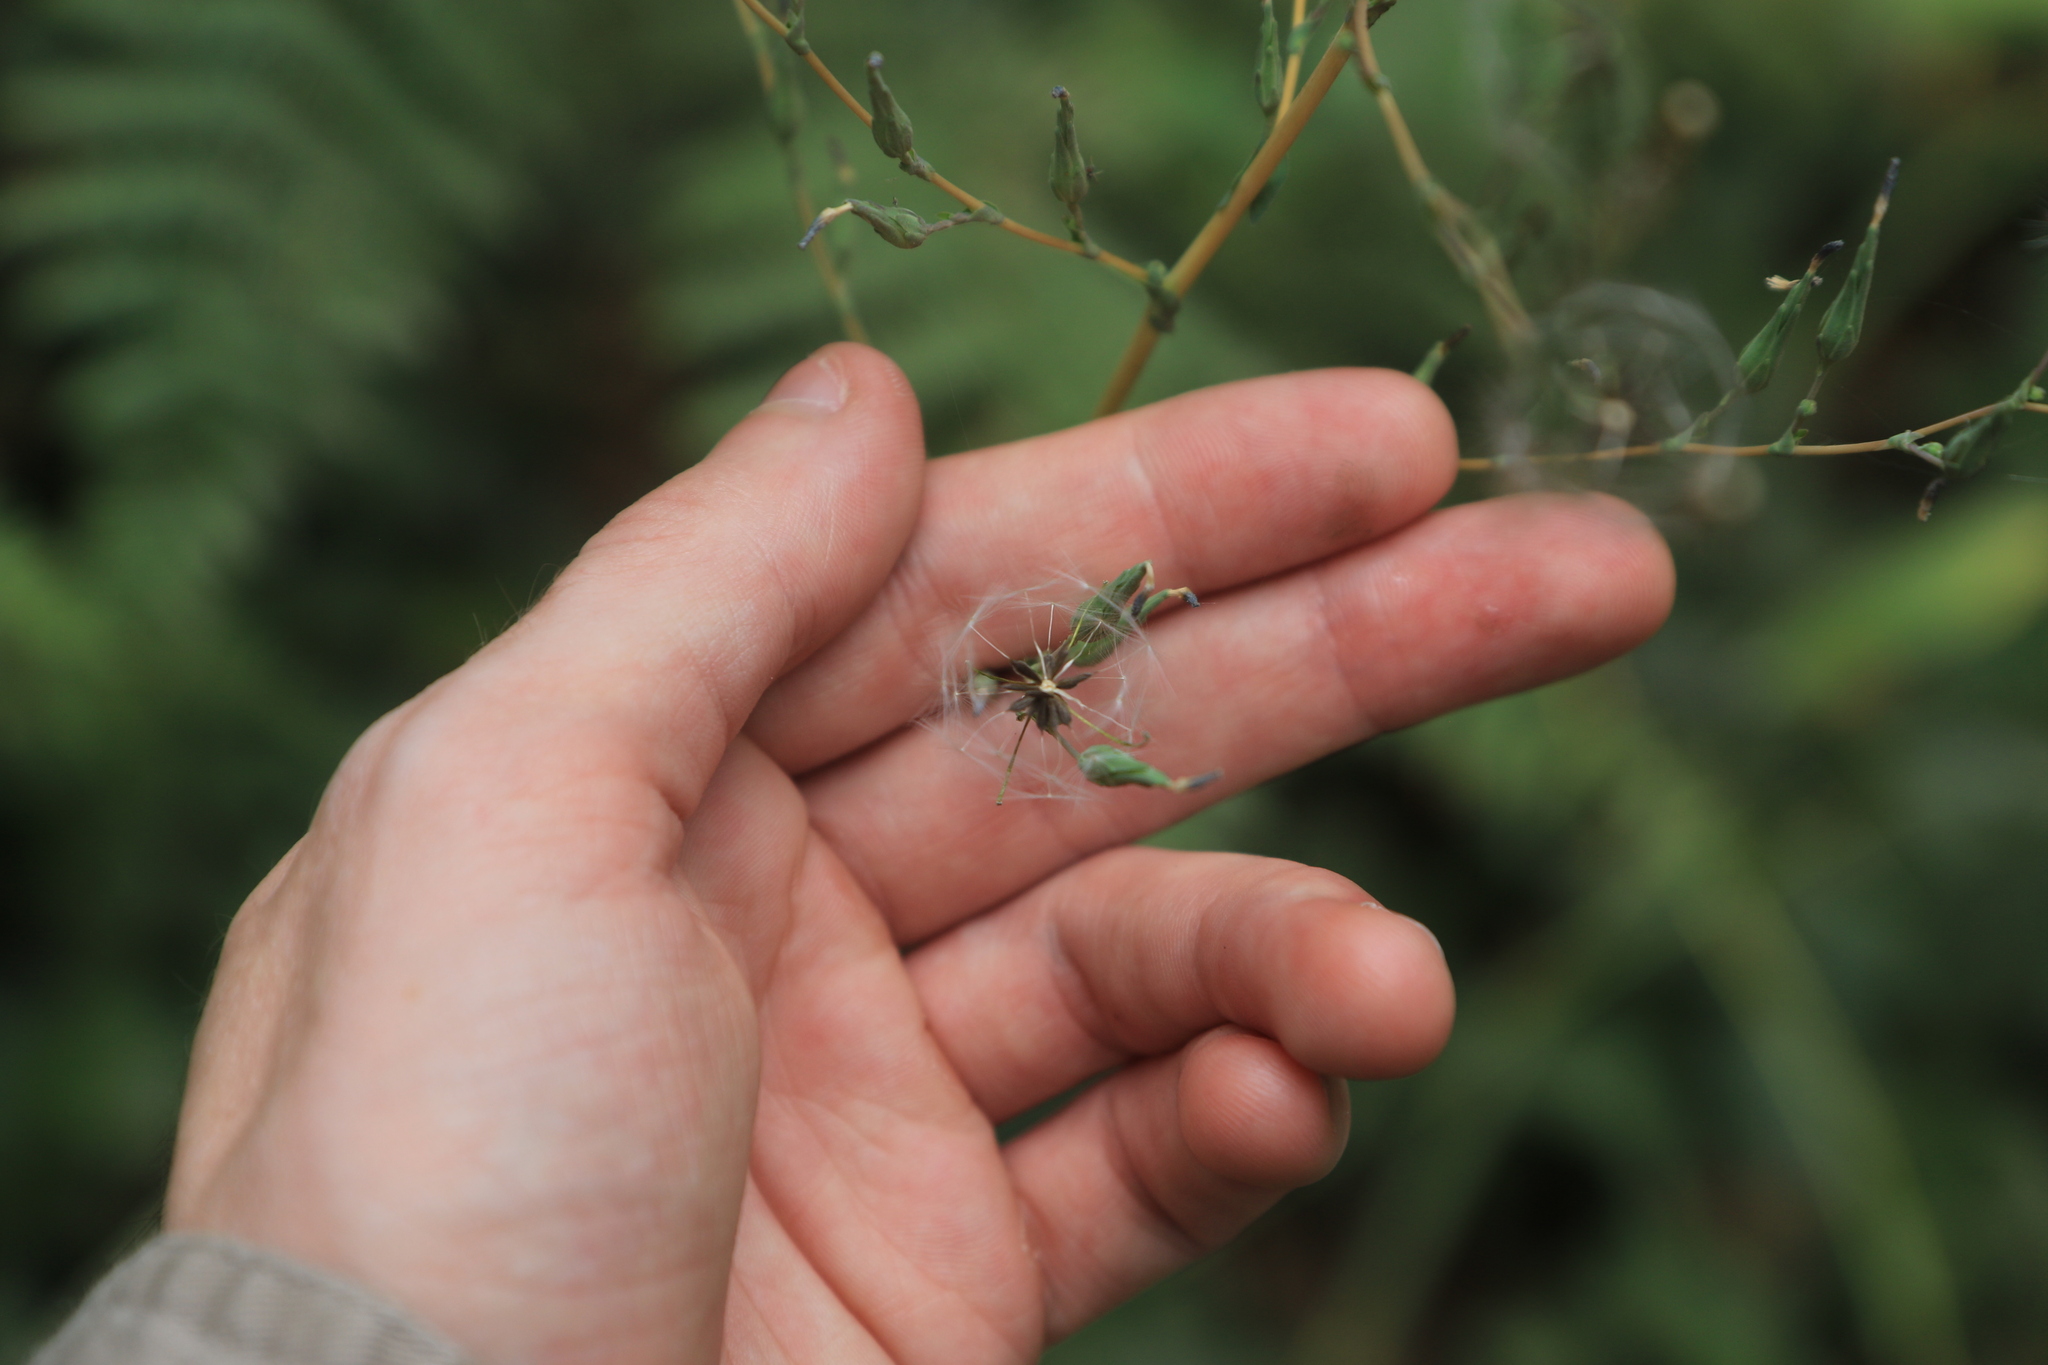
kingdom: Plantae
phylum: Tracheophyta
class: Magnoliopsida
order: Asterales
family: Asteraceae
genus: Lactuca
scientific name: Lactuca serriola
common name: Prickly lettuce
